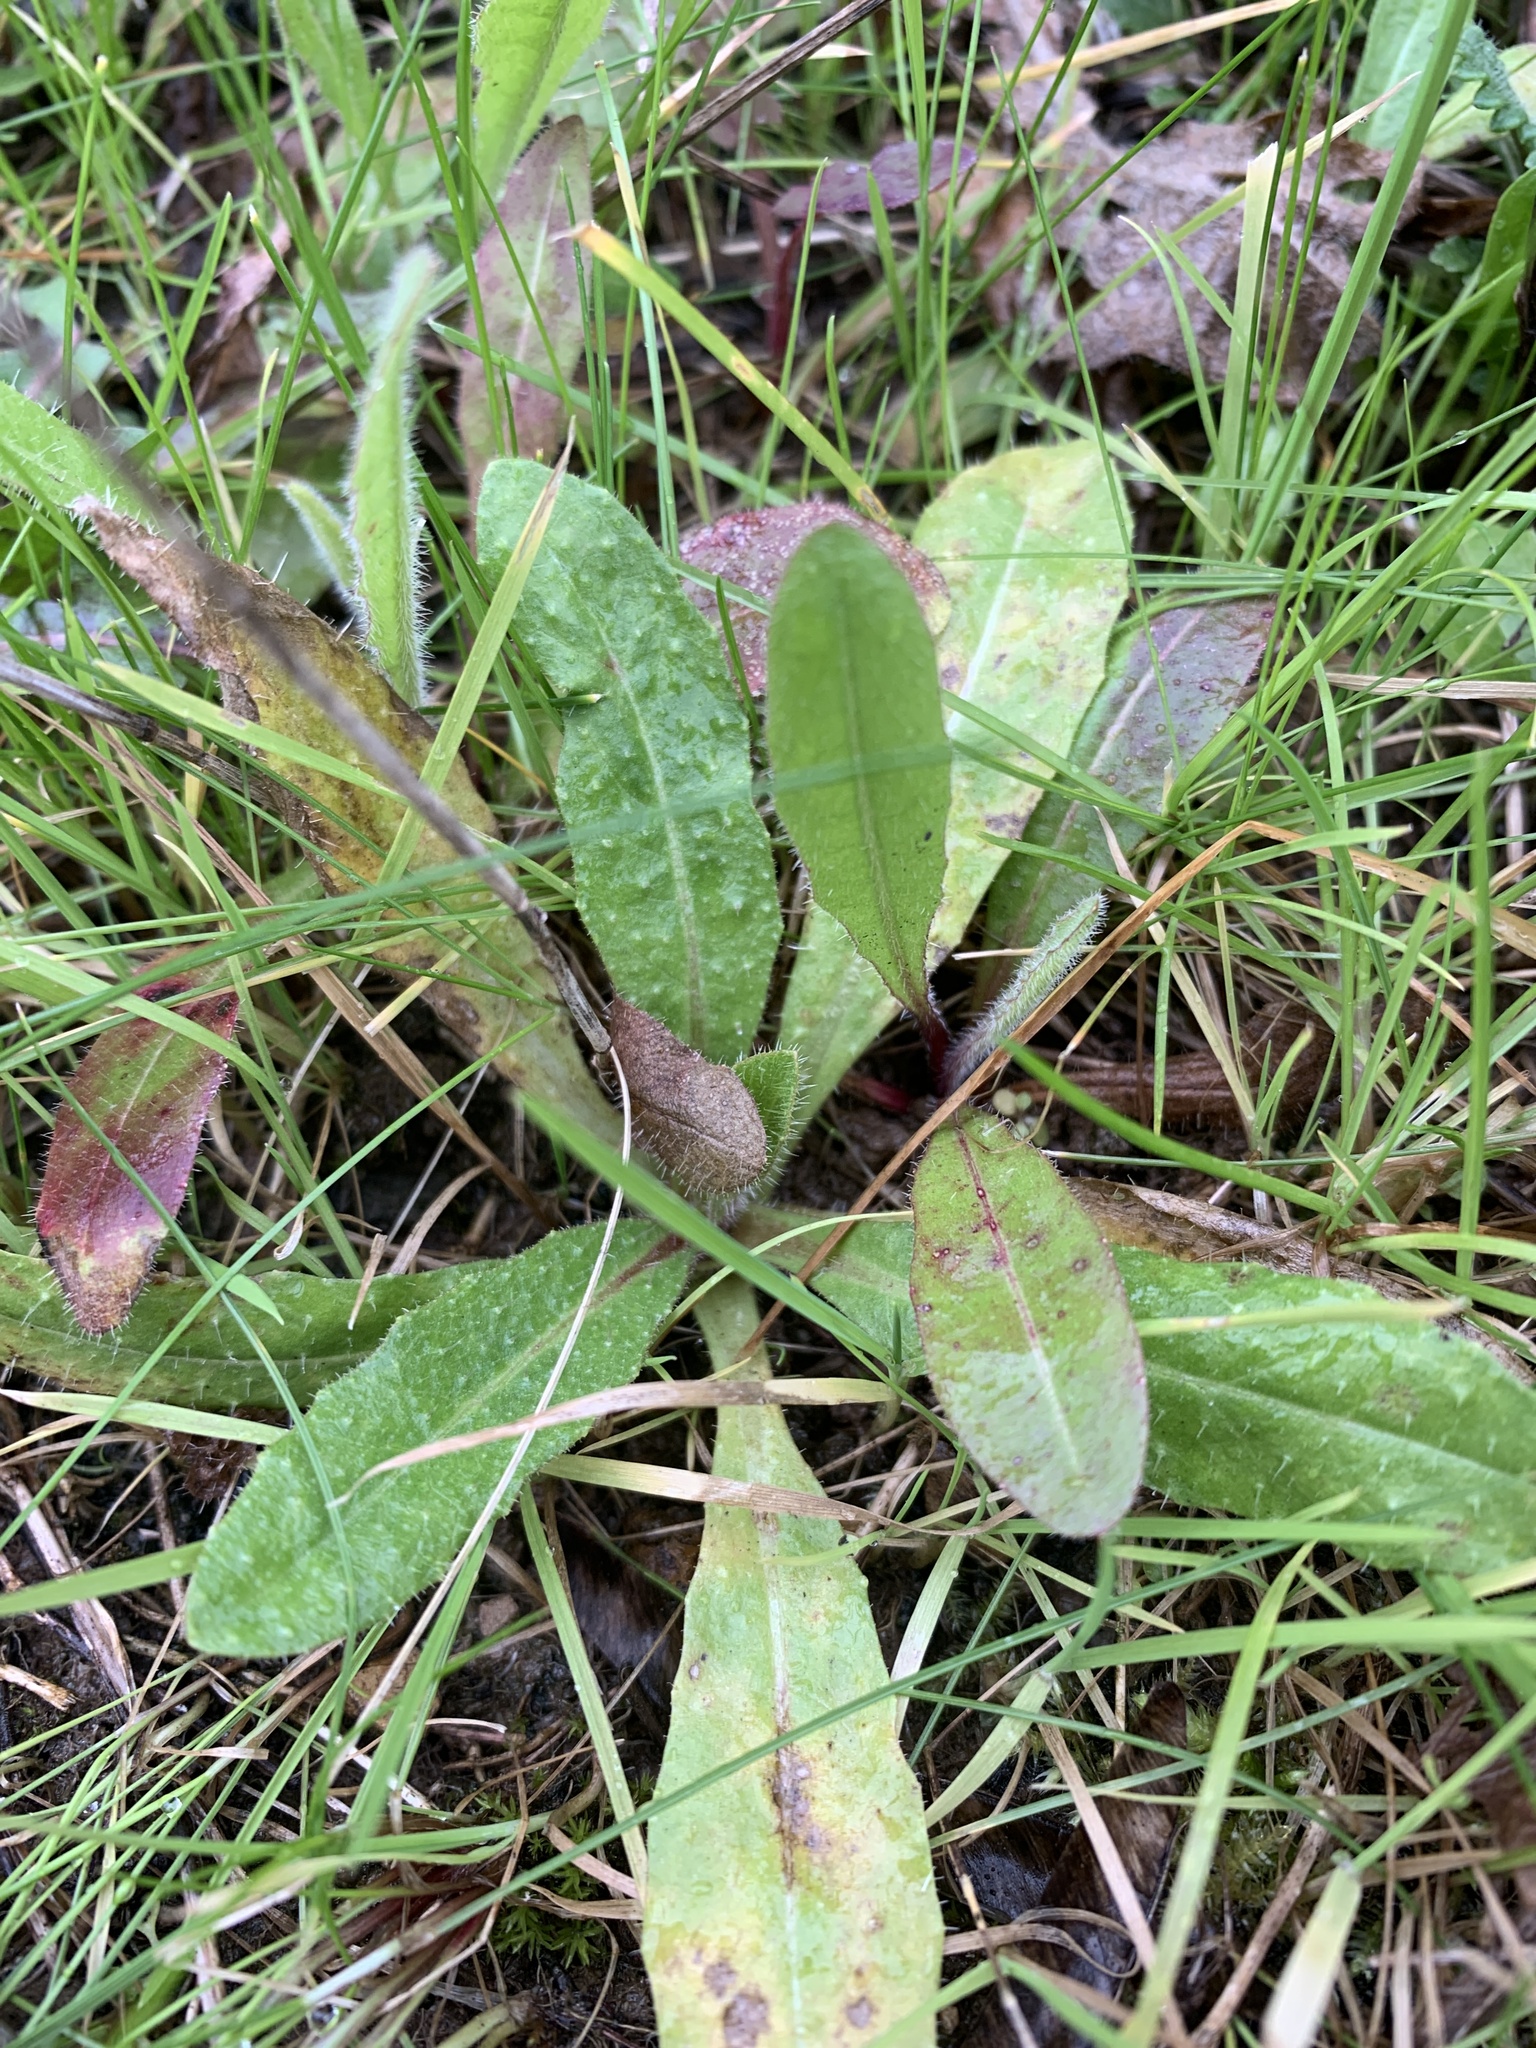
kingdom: Plantae
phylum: Tracheophyta
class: Magnoliopsida
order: Asterales
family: Asteraceae
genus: Helminthotheca
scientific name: Helminthotheca echioides
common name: Ox-tongue
